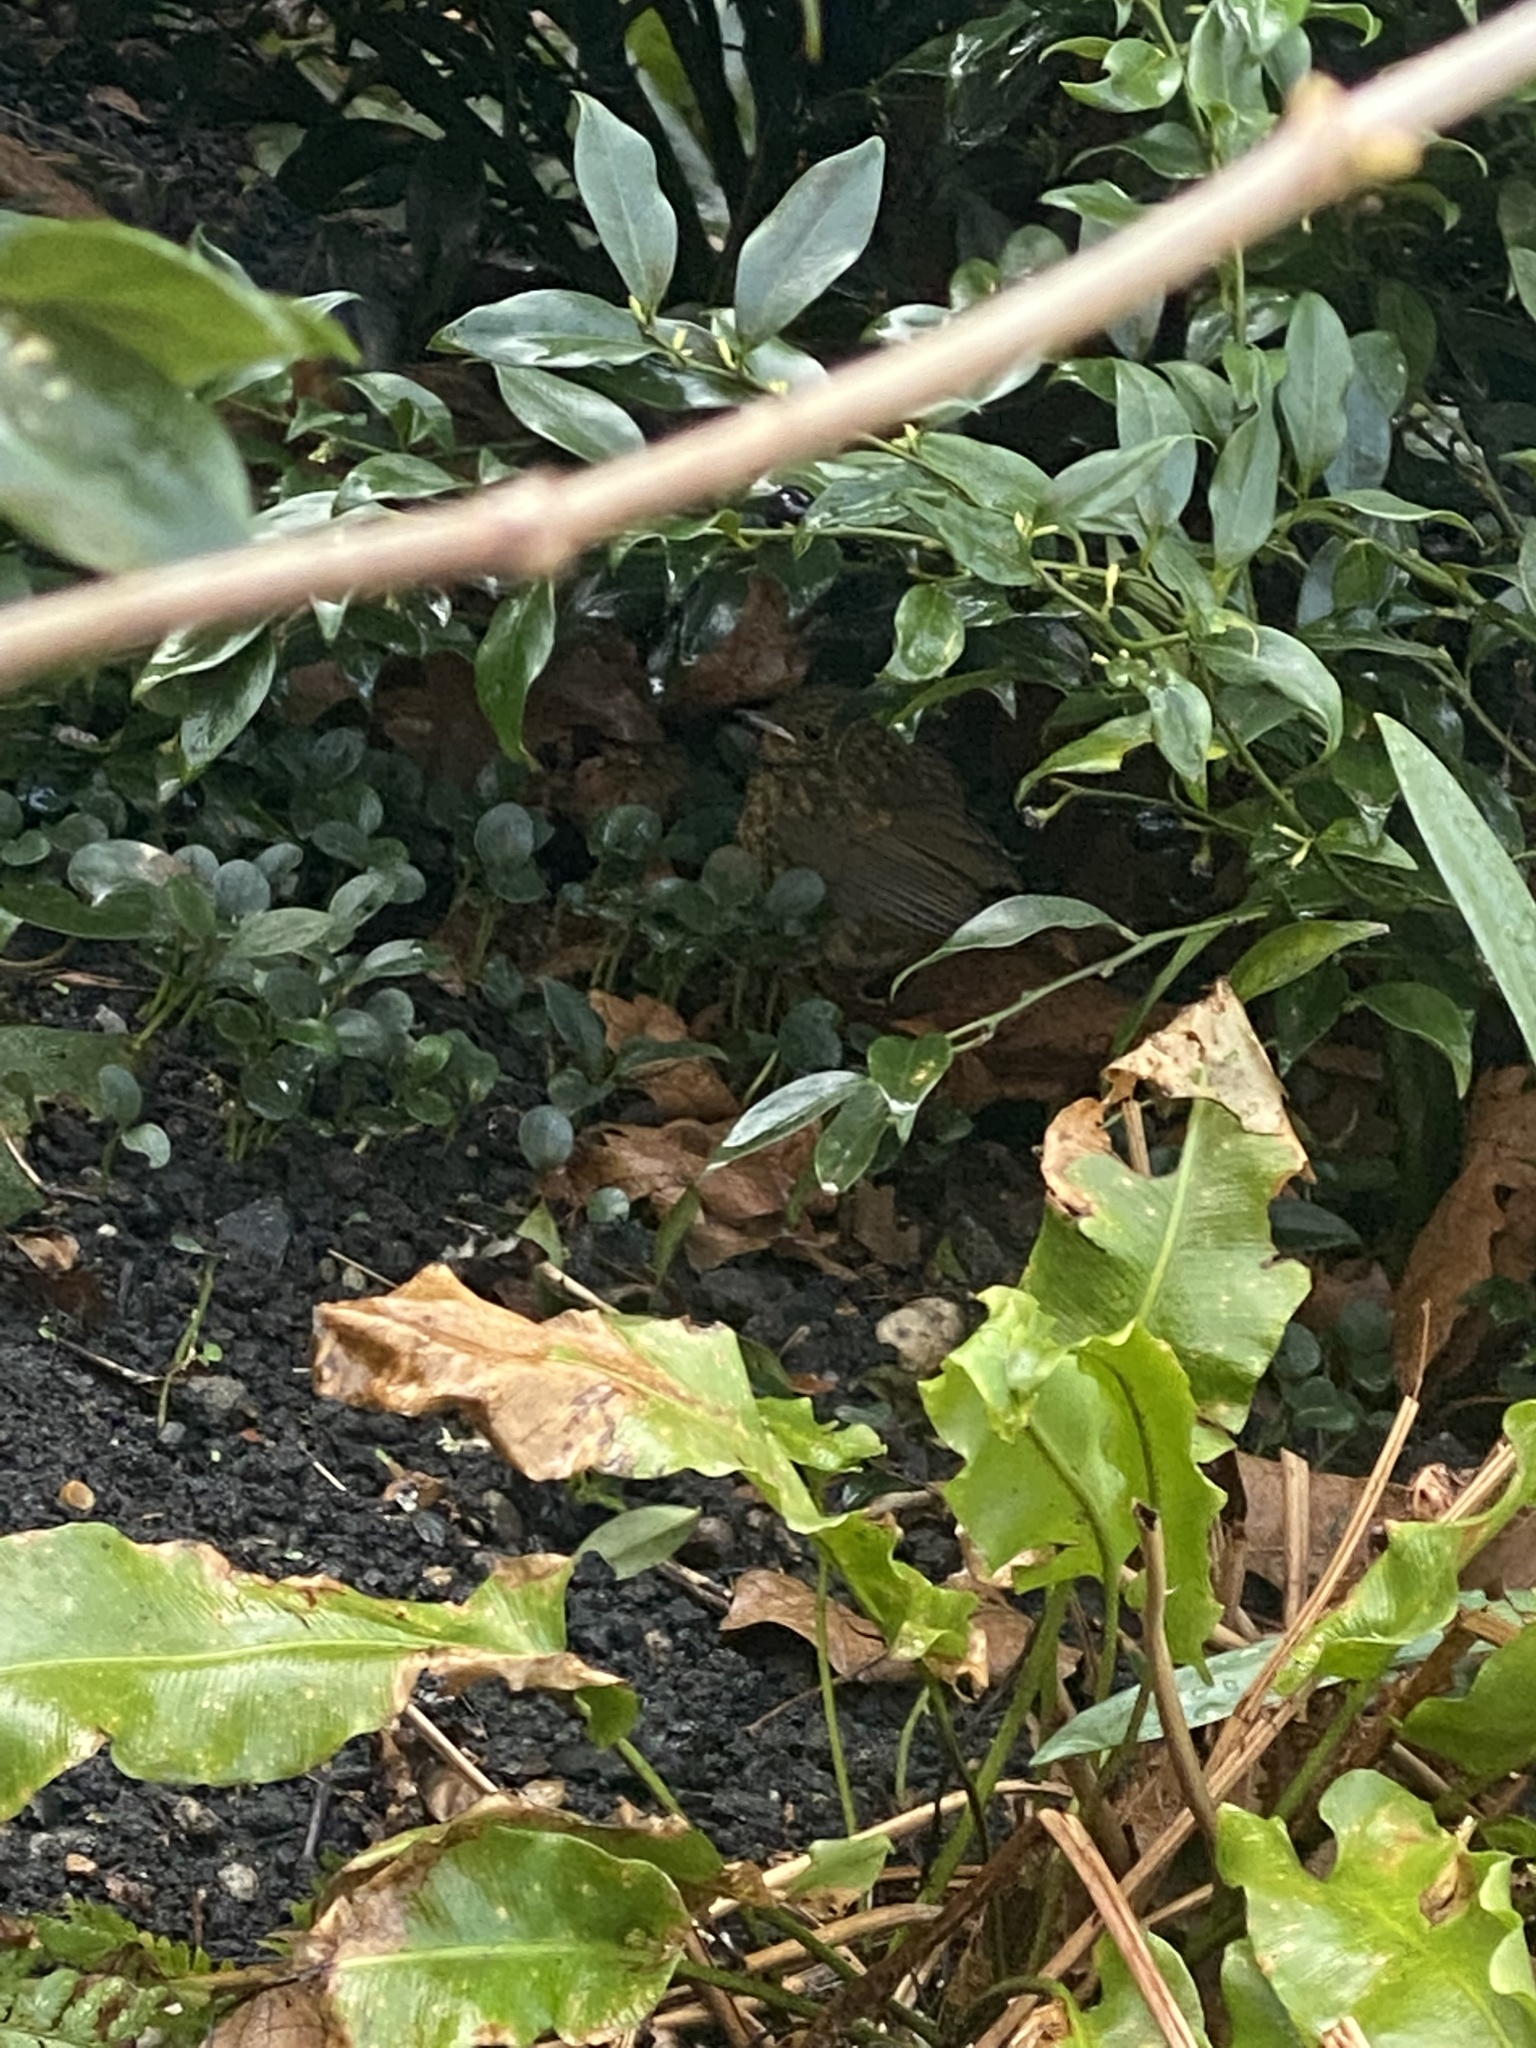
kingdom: Animalia
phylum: Chordata
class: Aves
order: Passeriformes
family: Muscicapidae
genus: Erithacus
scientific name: Erithacus rubecula
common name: European robin
